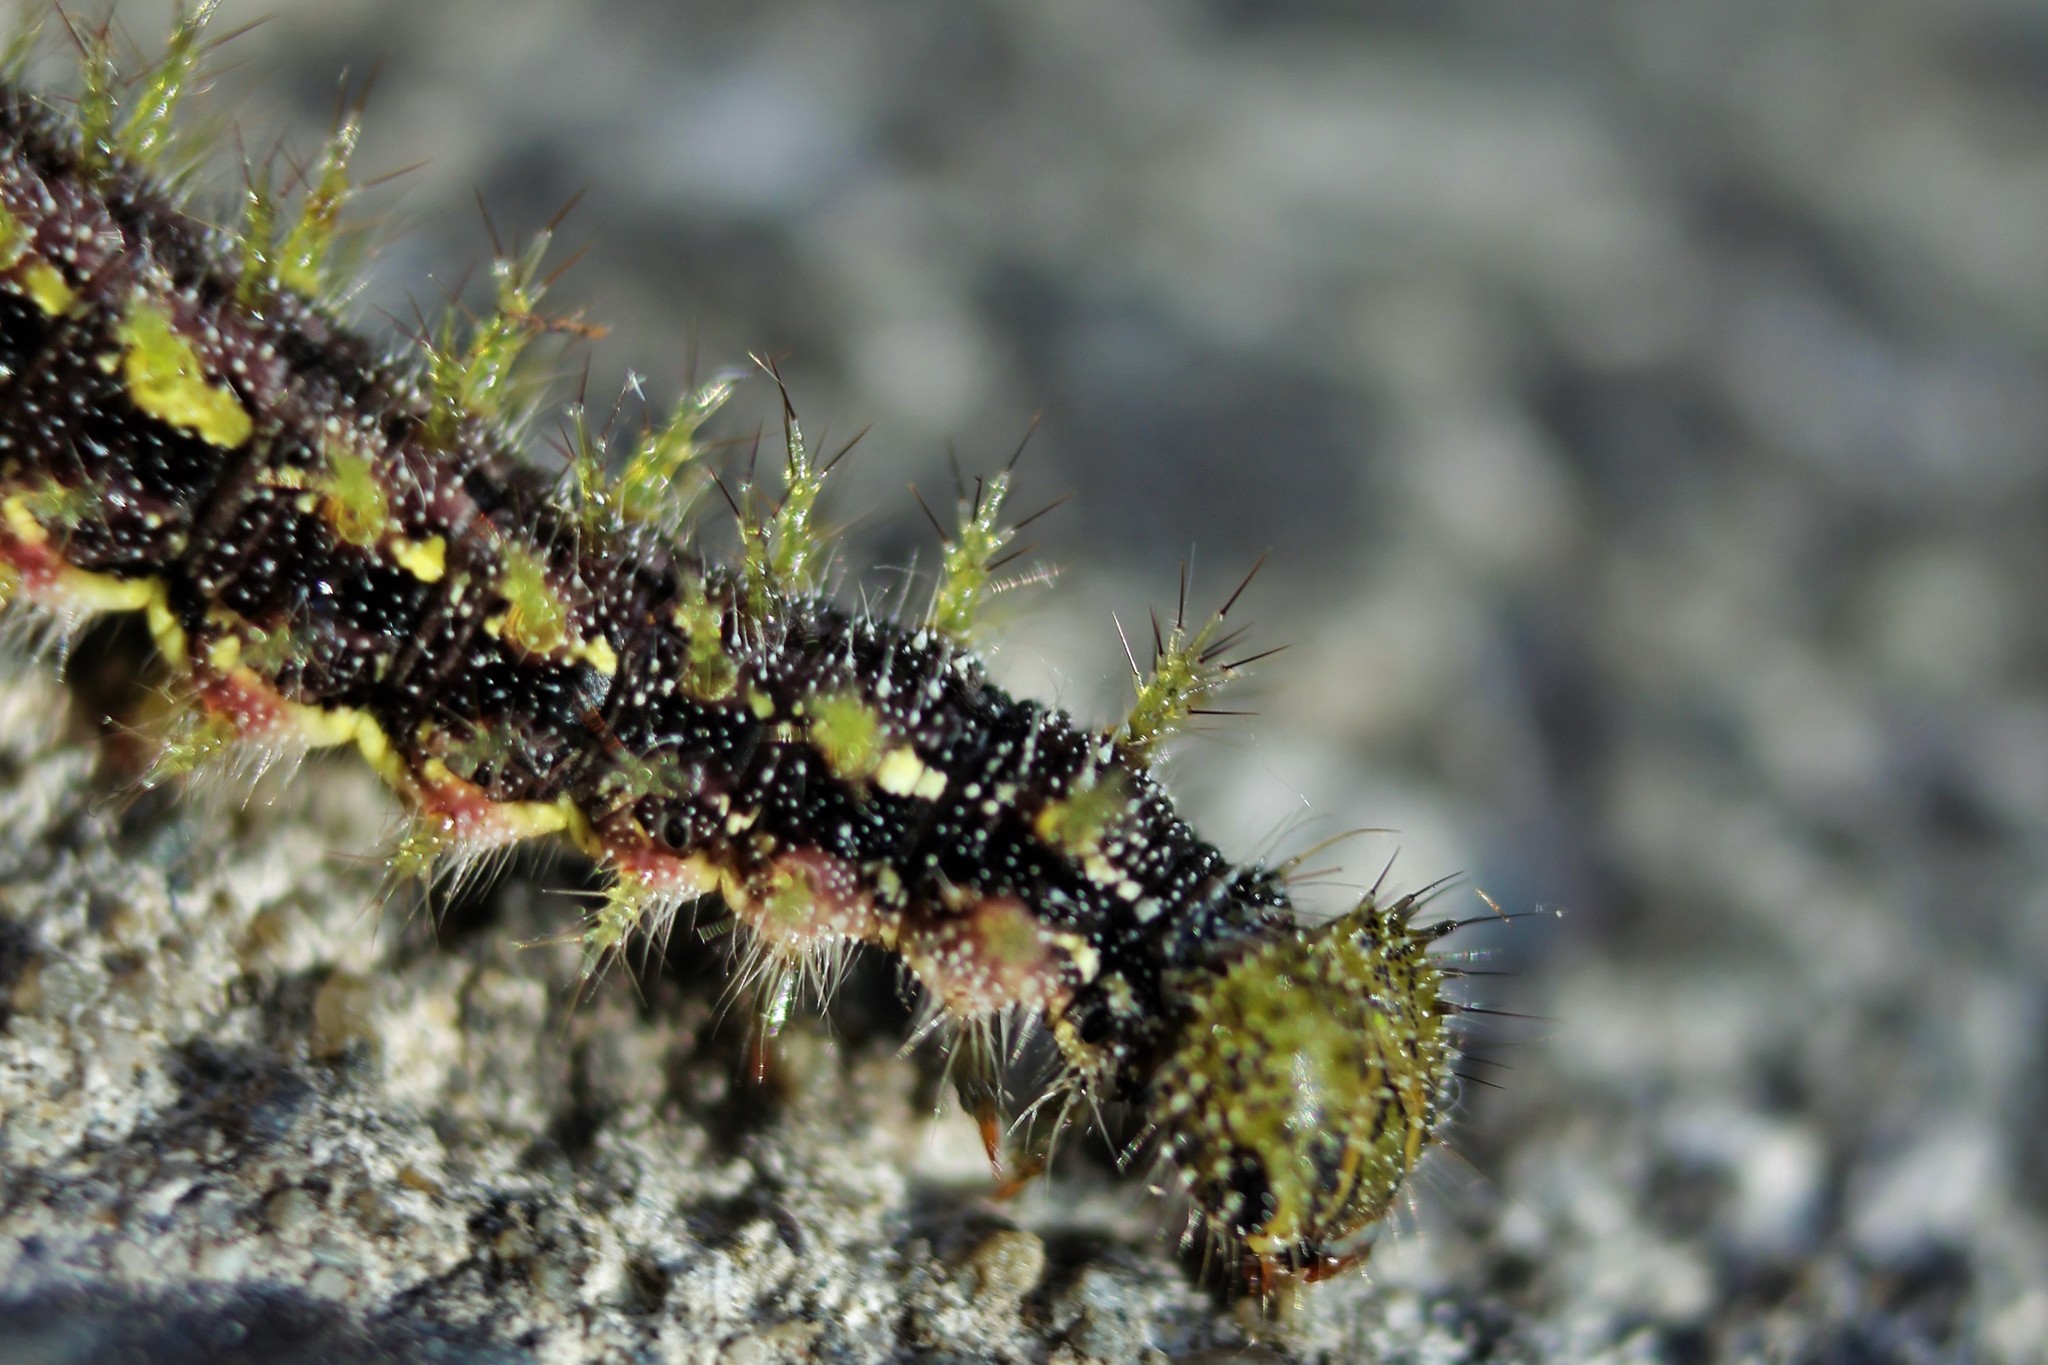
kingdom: Animalia
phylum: Arthropoda
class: Insecta
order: Lepidoptera
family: Nymphalidae
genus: Vanessa
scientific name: Vanessa itea
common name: Yellow admiral
